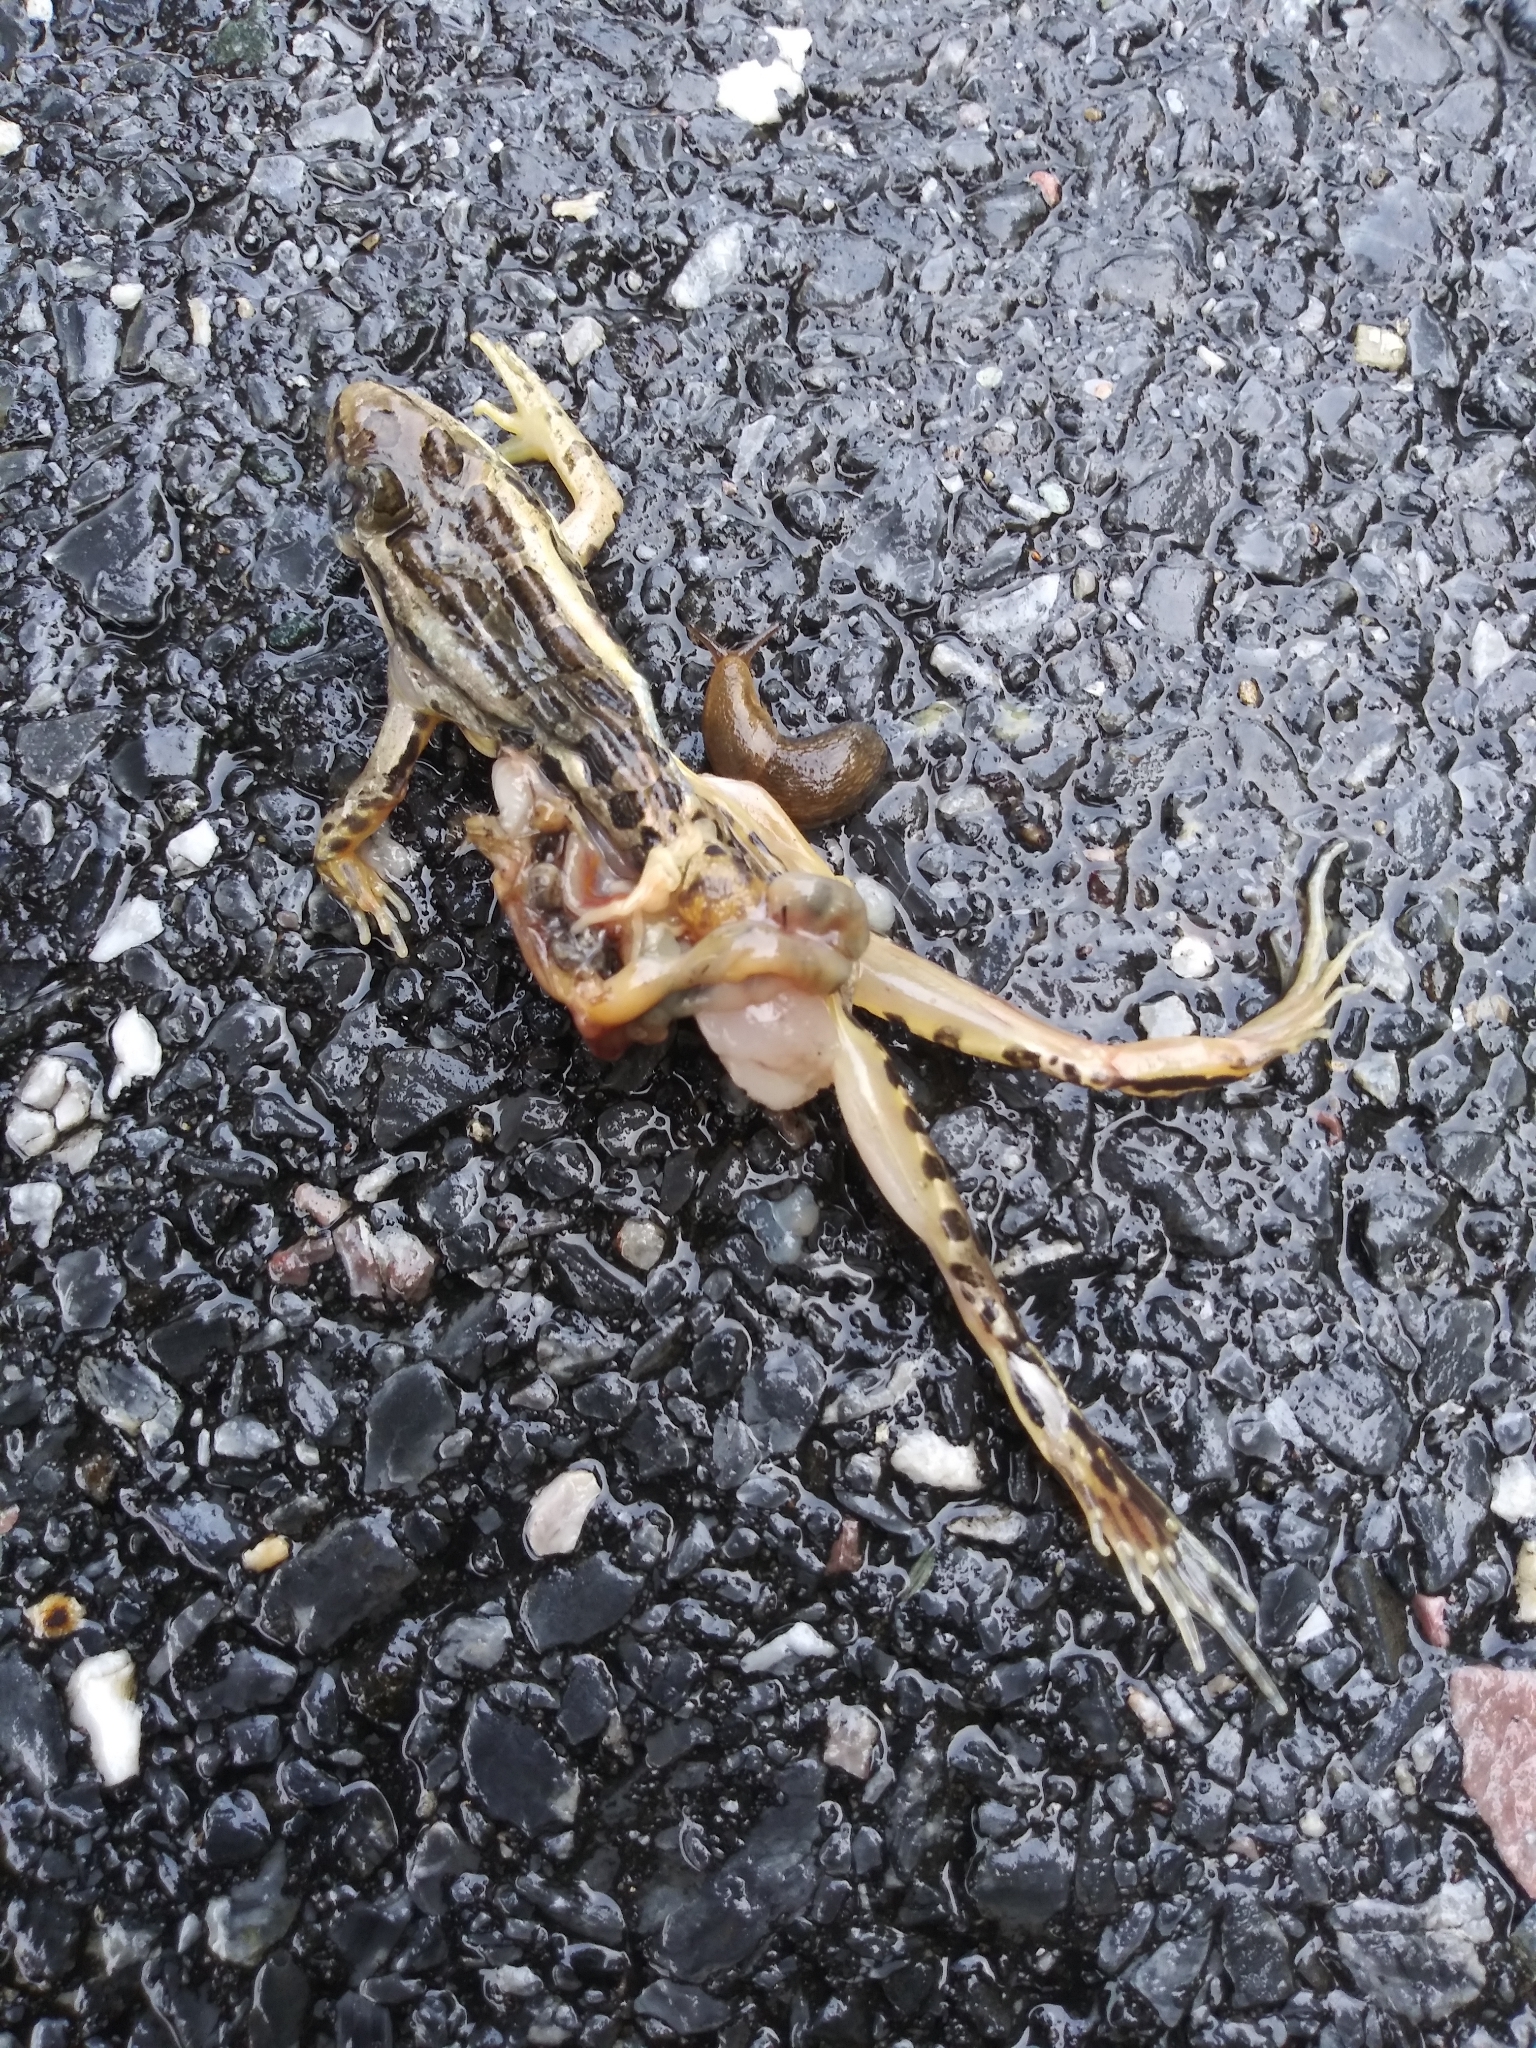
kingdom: Animalia
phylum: Chordata
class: Amphibia
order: Anura
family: Ranidae
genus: Lithobates
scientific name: Lithobates palustris
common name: Pickerel frog
